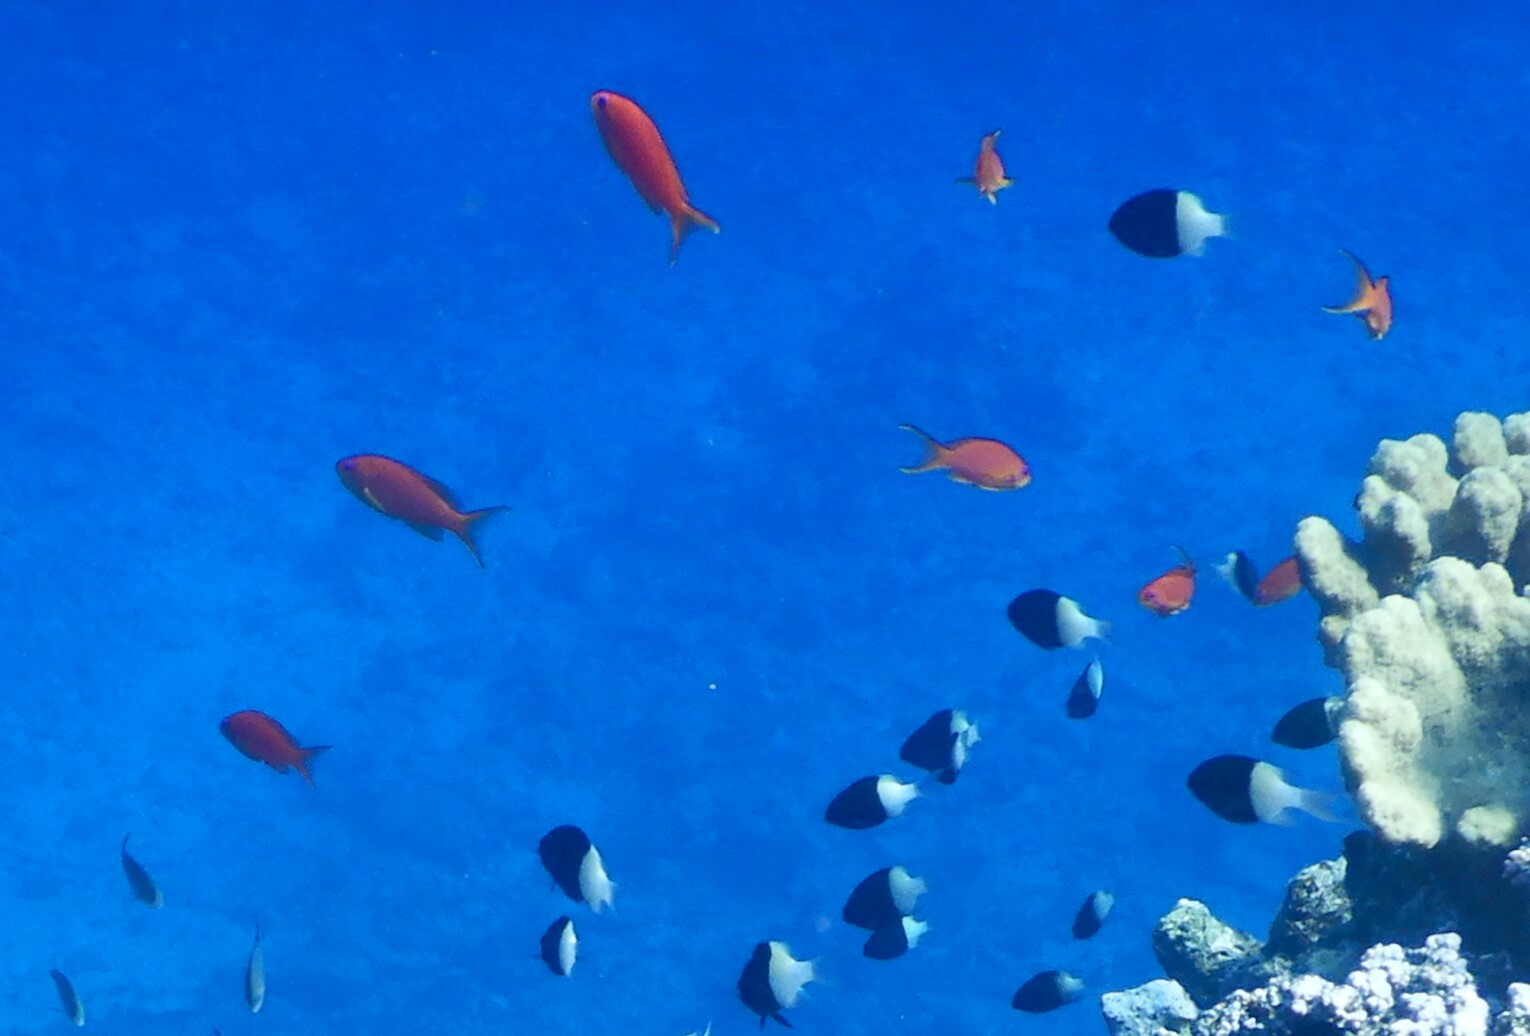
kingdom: Animalia
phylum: Chordata
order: Perciformes
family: Pomacentridae
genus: Chromis
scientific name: Chromis dimidiata
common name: Half-and-half chromis
